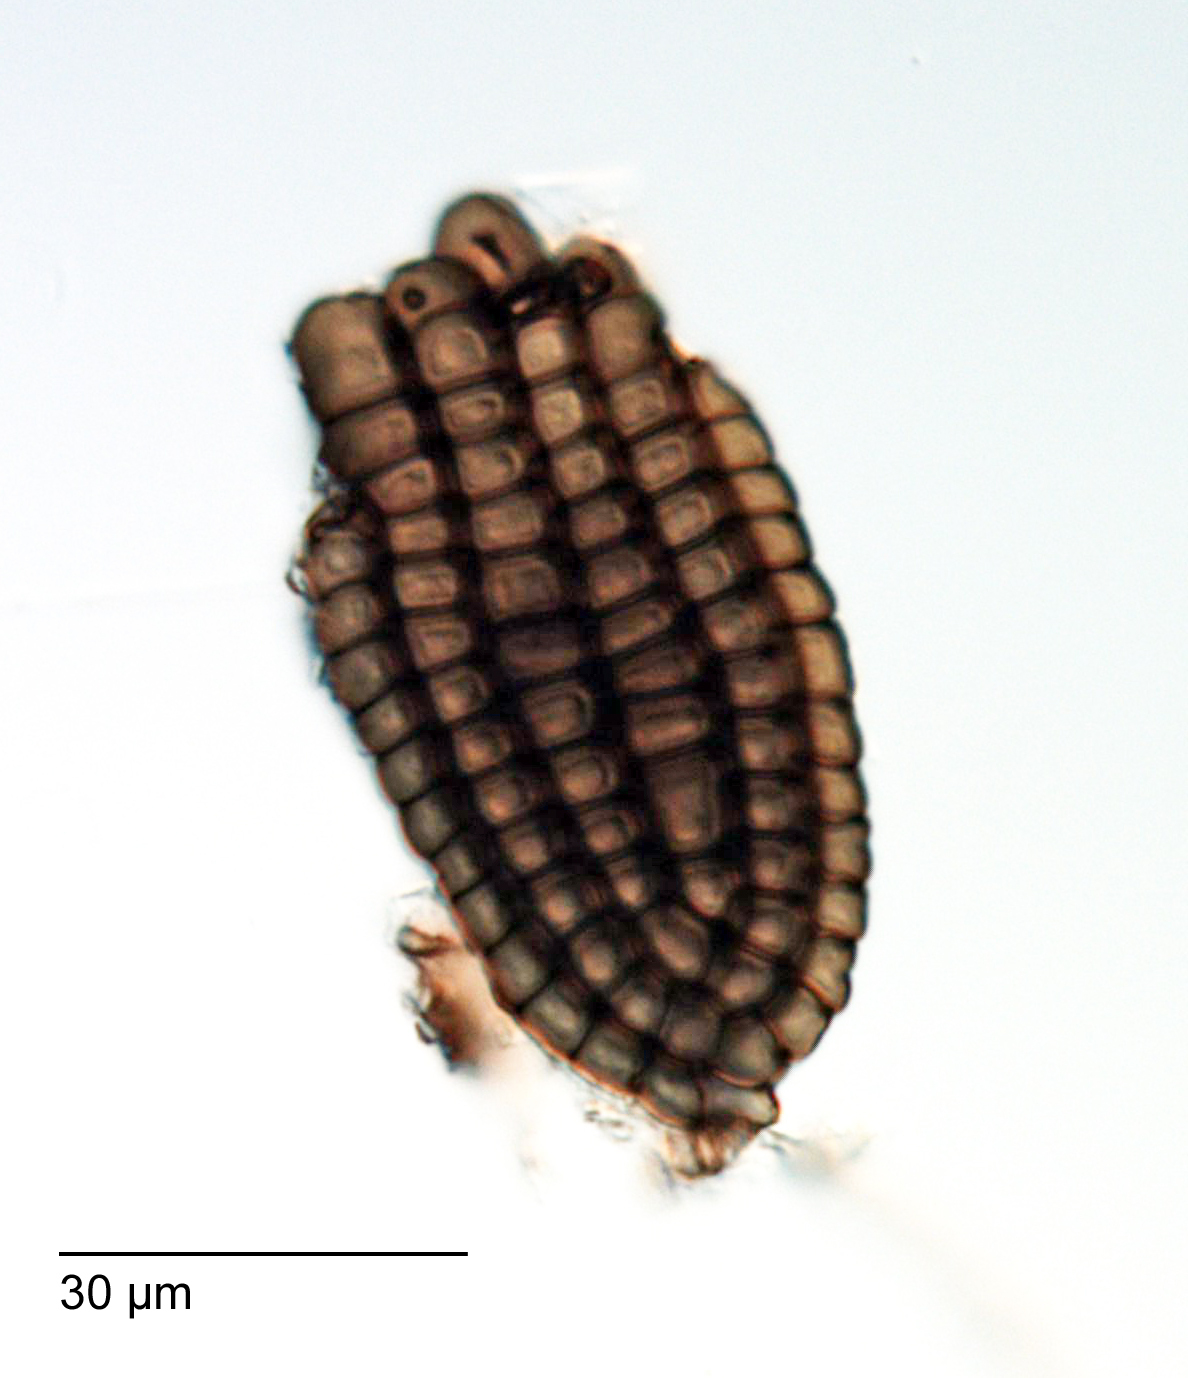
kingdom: Fungi
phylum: Ascomycota
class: Dothideomycetes
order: Pleosporales
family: Dictyosporiaceae
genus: Jalapriya
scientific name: Jalapriya toruloides
